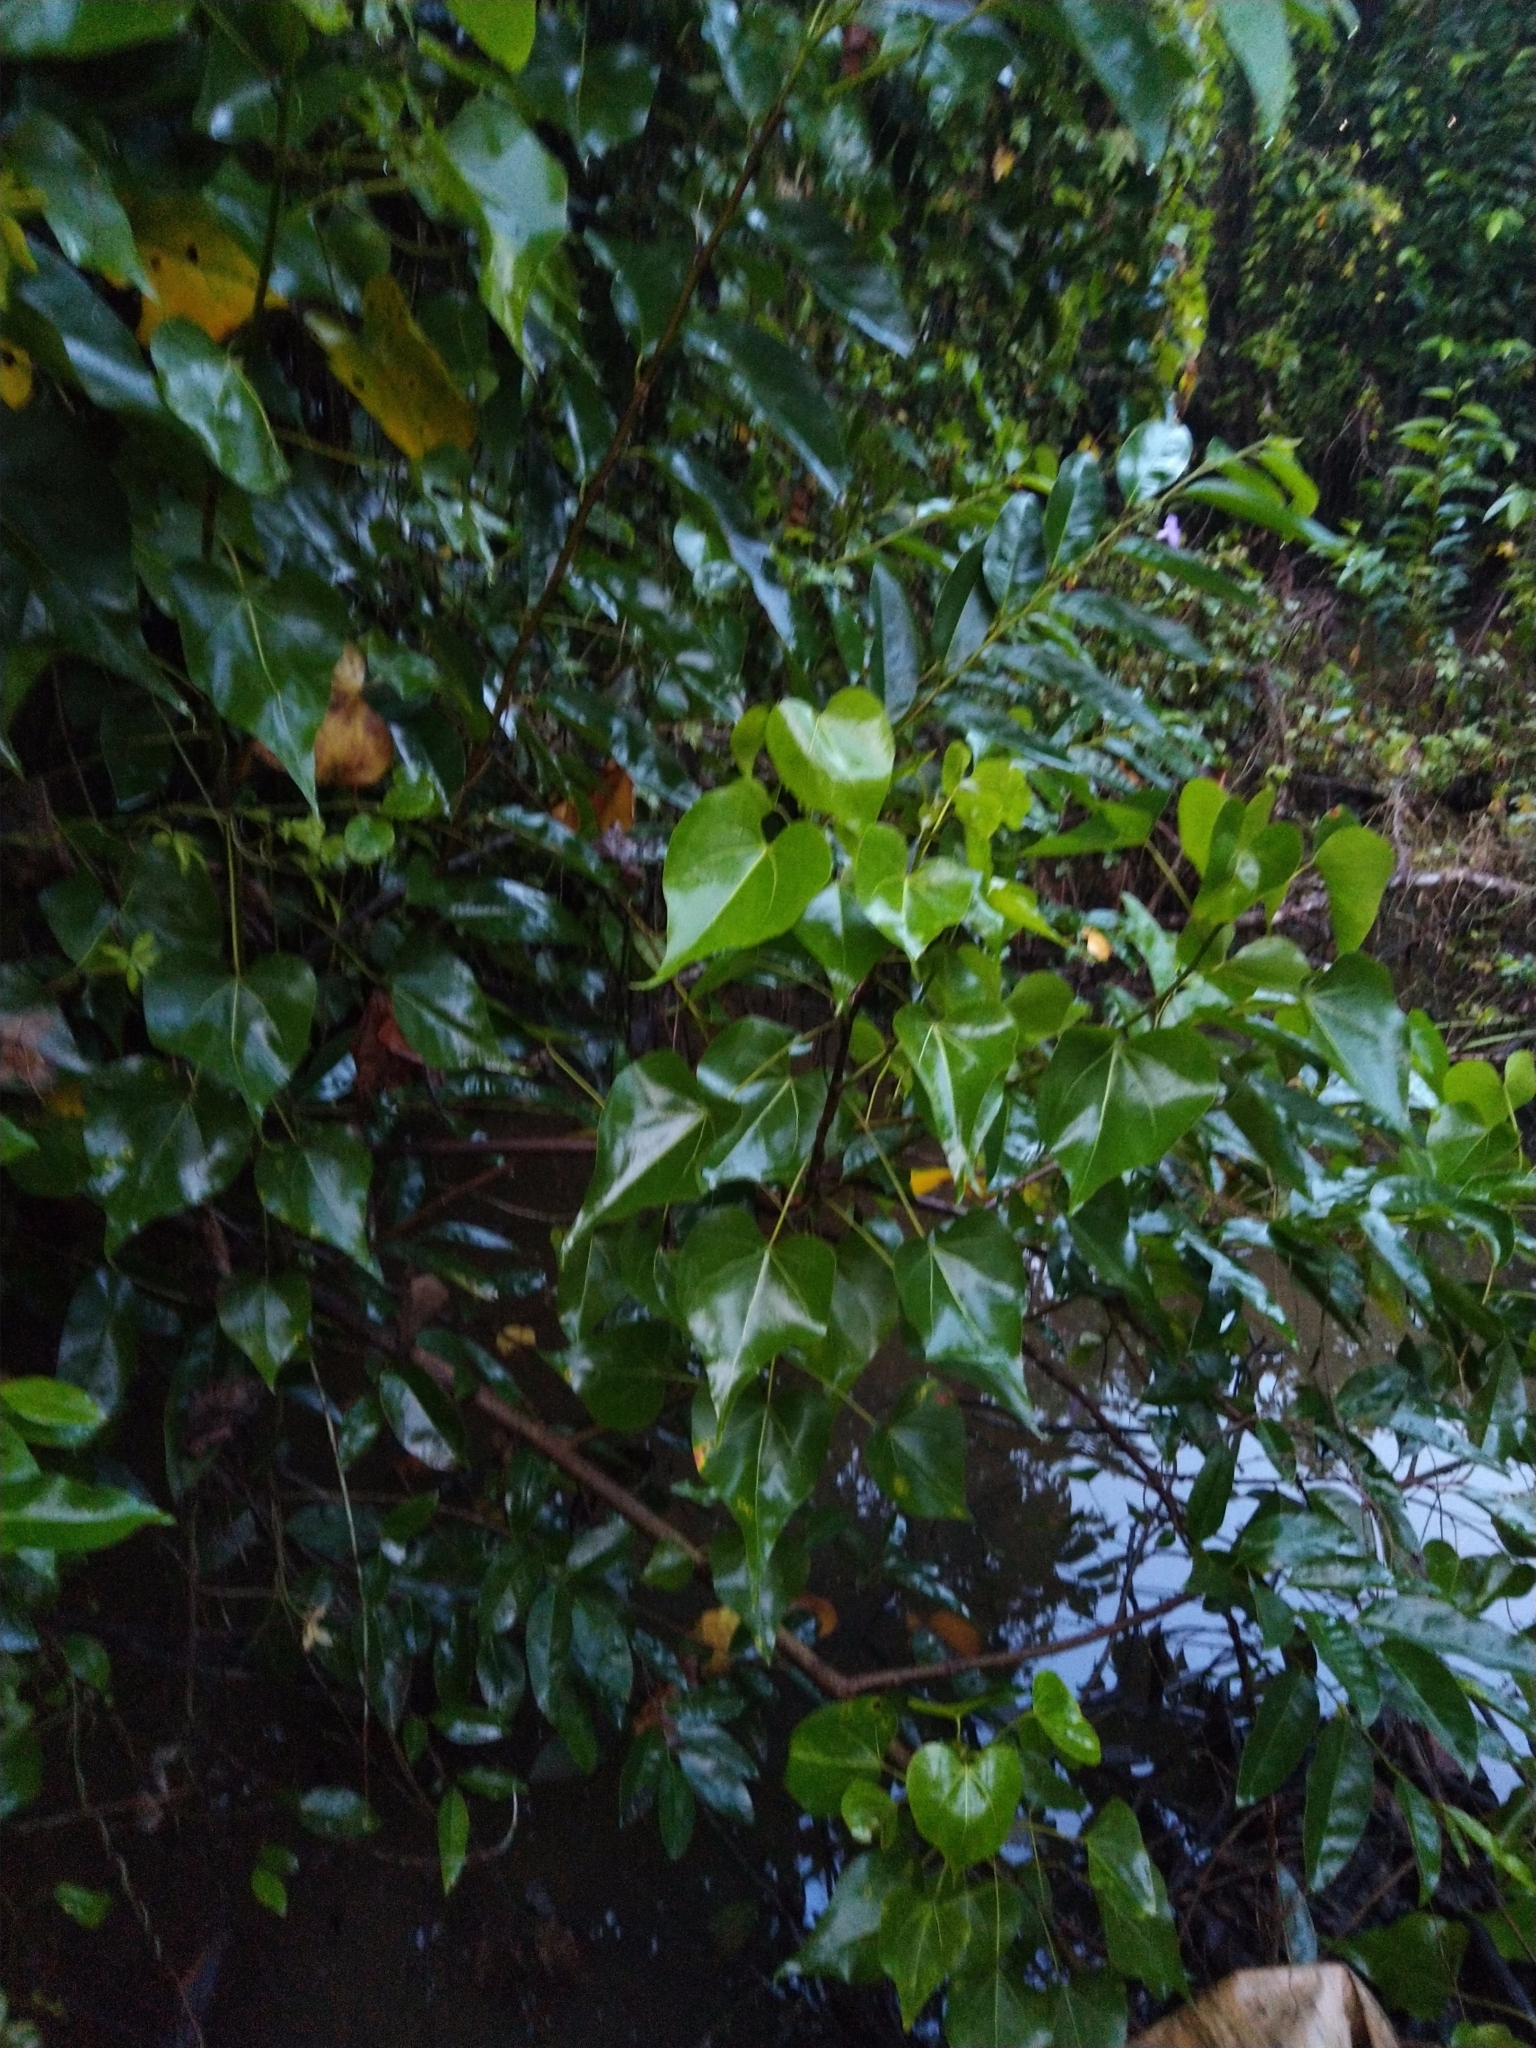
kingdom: Plantae
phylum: Tracheophyta
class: Magnoliopsida
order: Malvales
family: Malvaceae
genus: Thespesia
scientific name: Thespesia populnea
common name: Seaside mahoe
